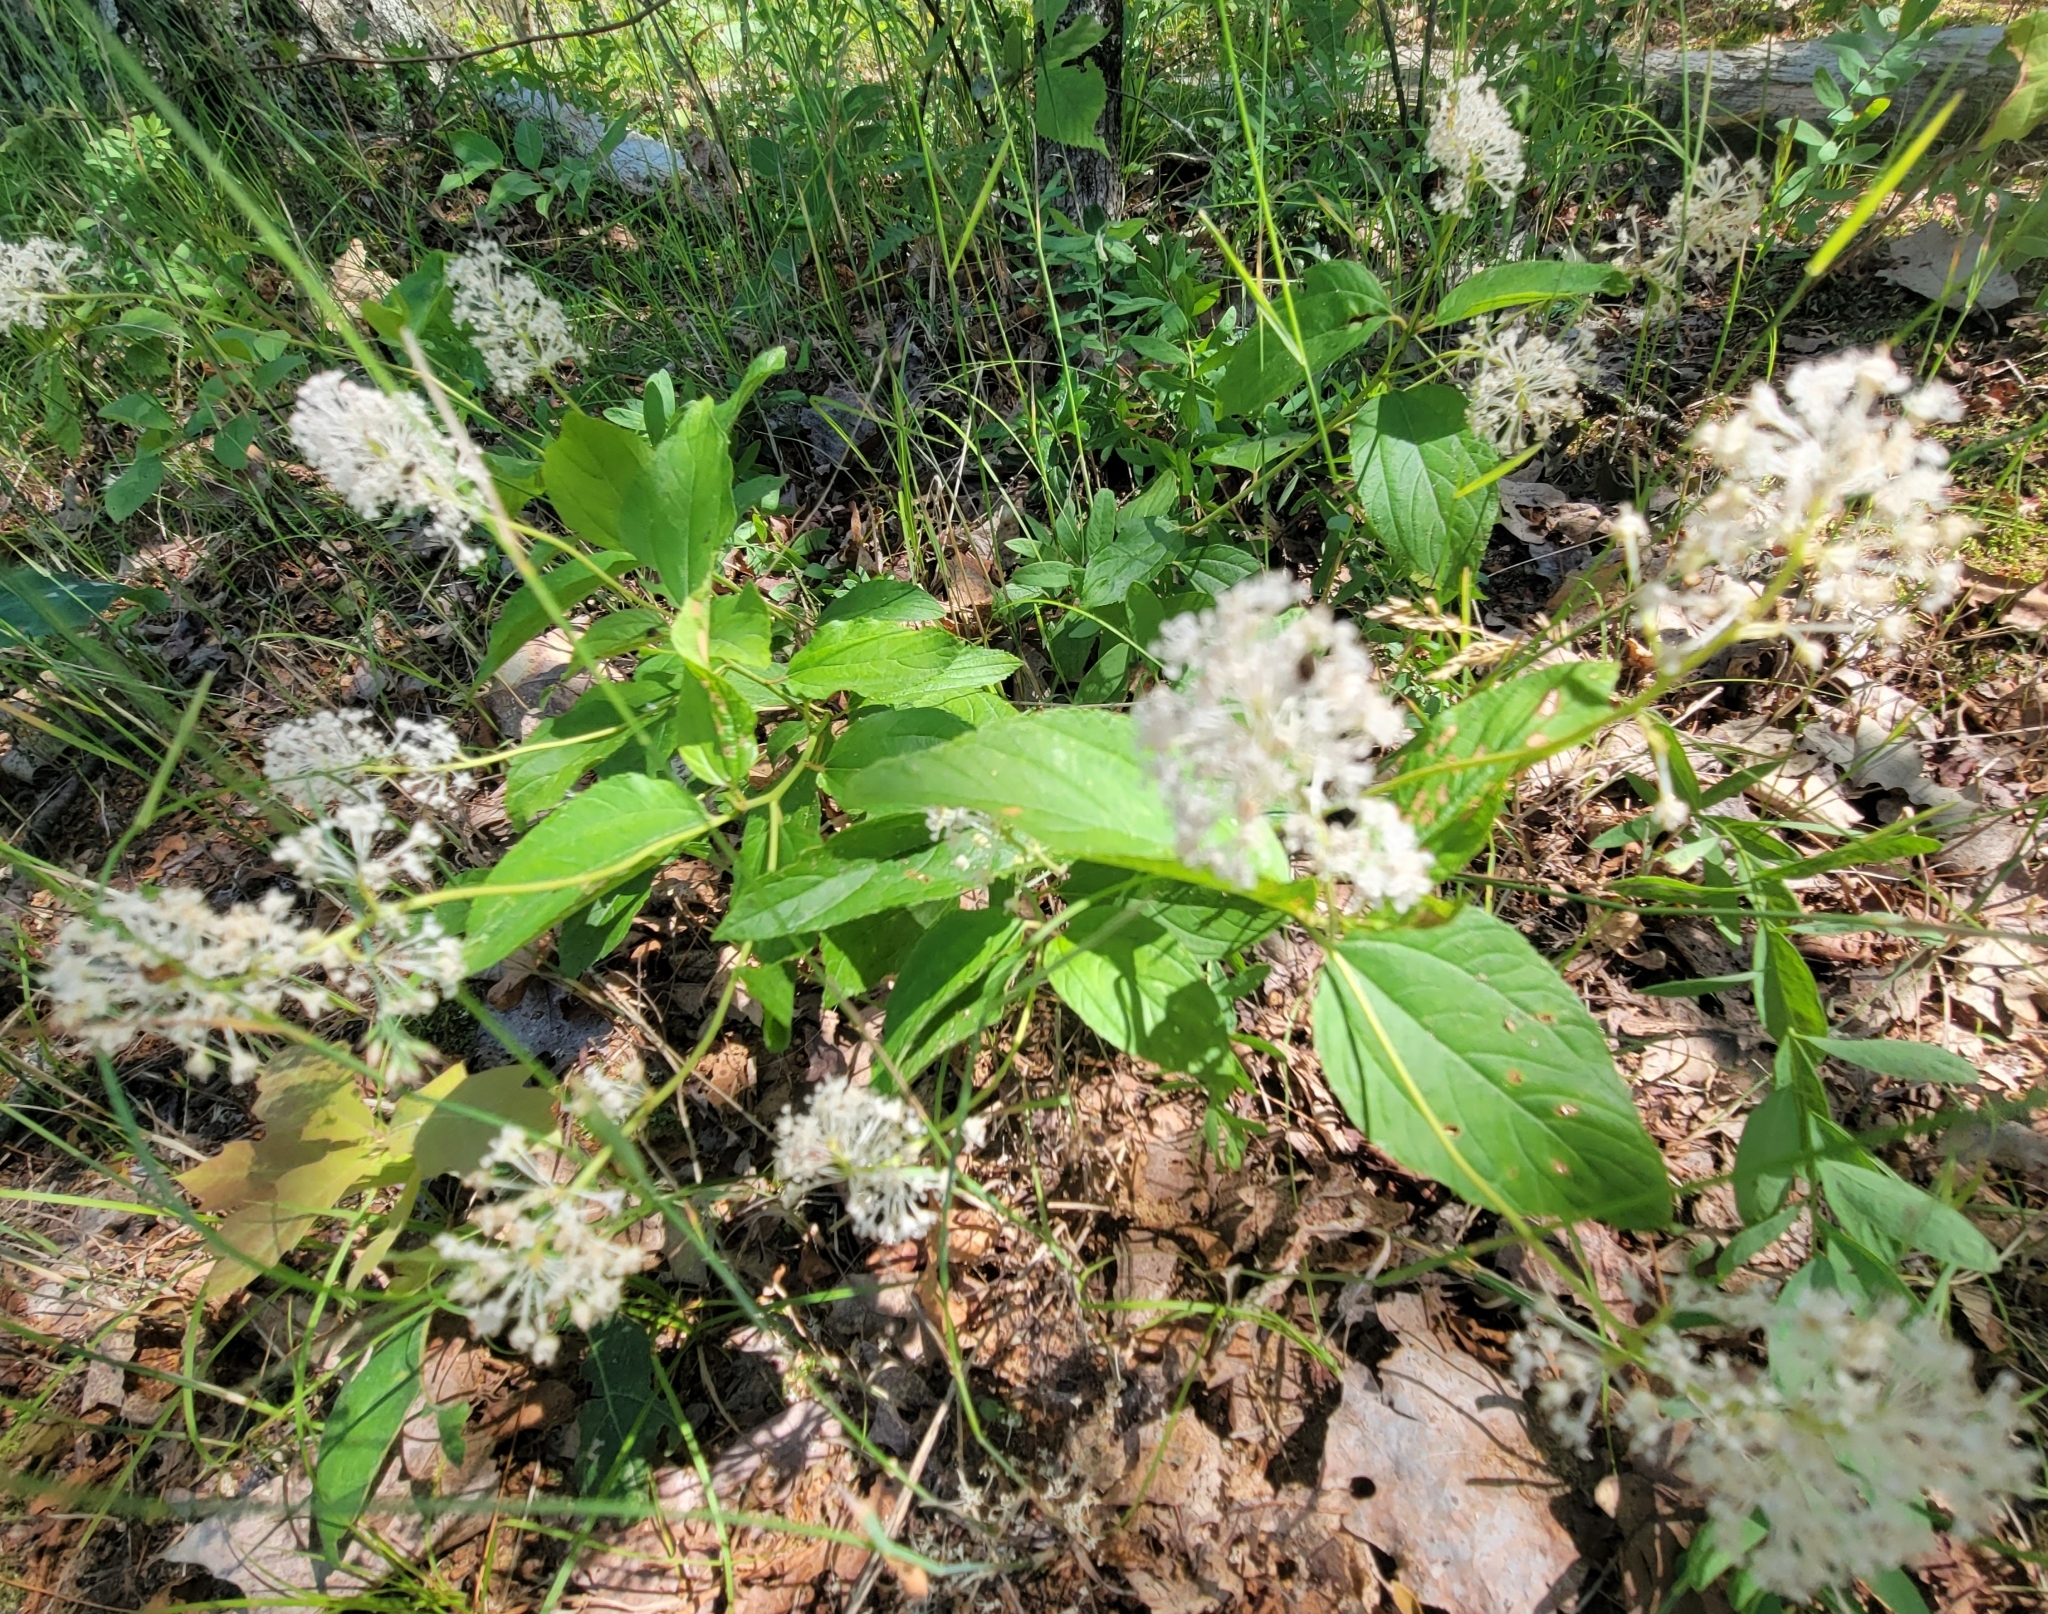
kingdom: Plantae
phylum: Tracheophyta
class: Magnoliopsida
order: Rosales
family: Rhamnaceae
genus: Ceanothus
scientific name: Ceanothus americanus
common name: Redroot
